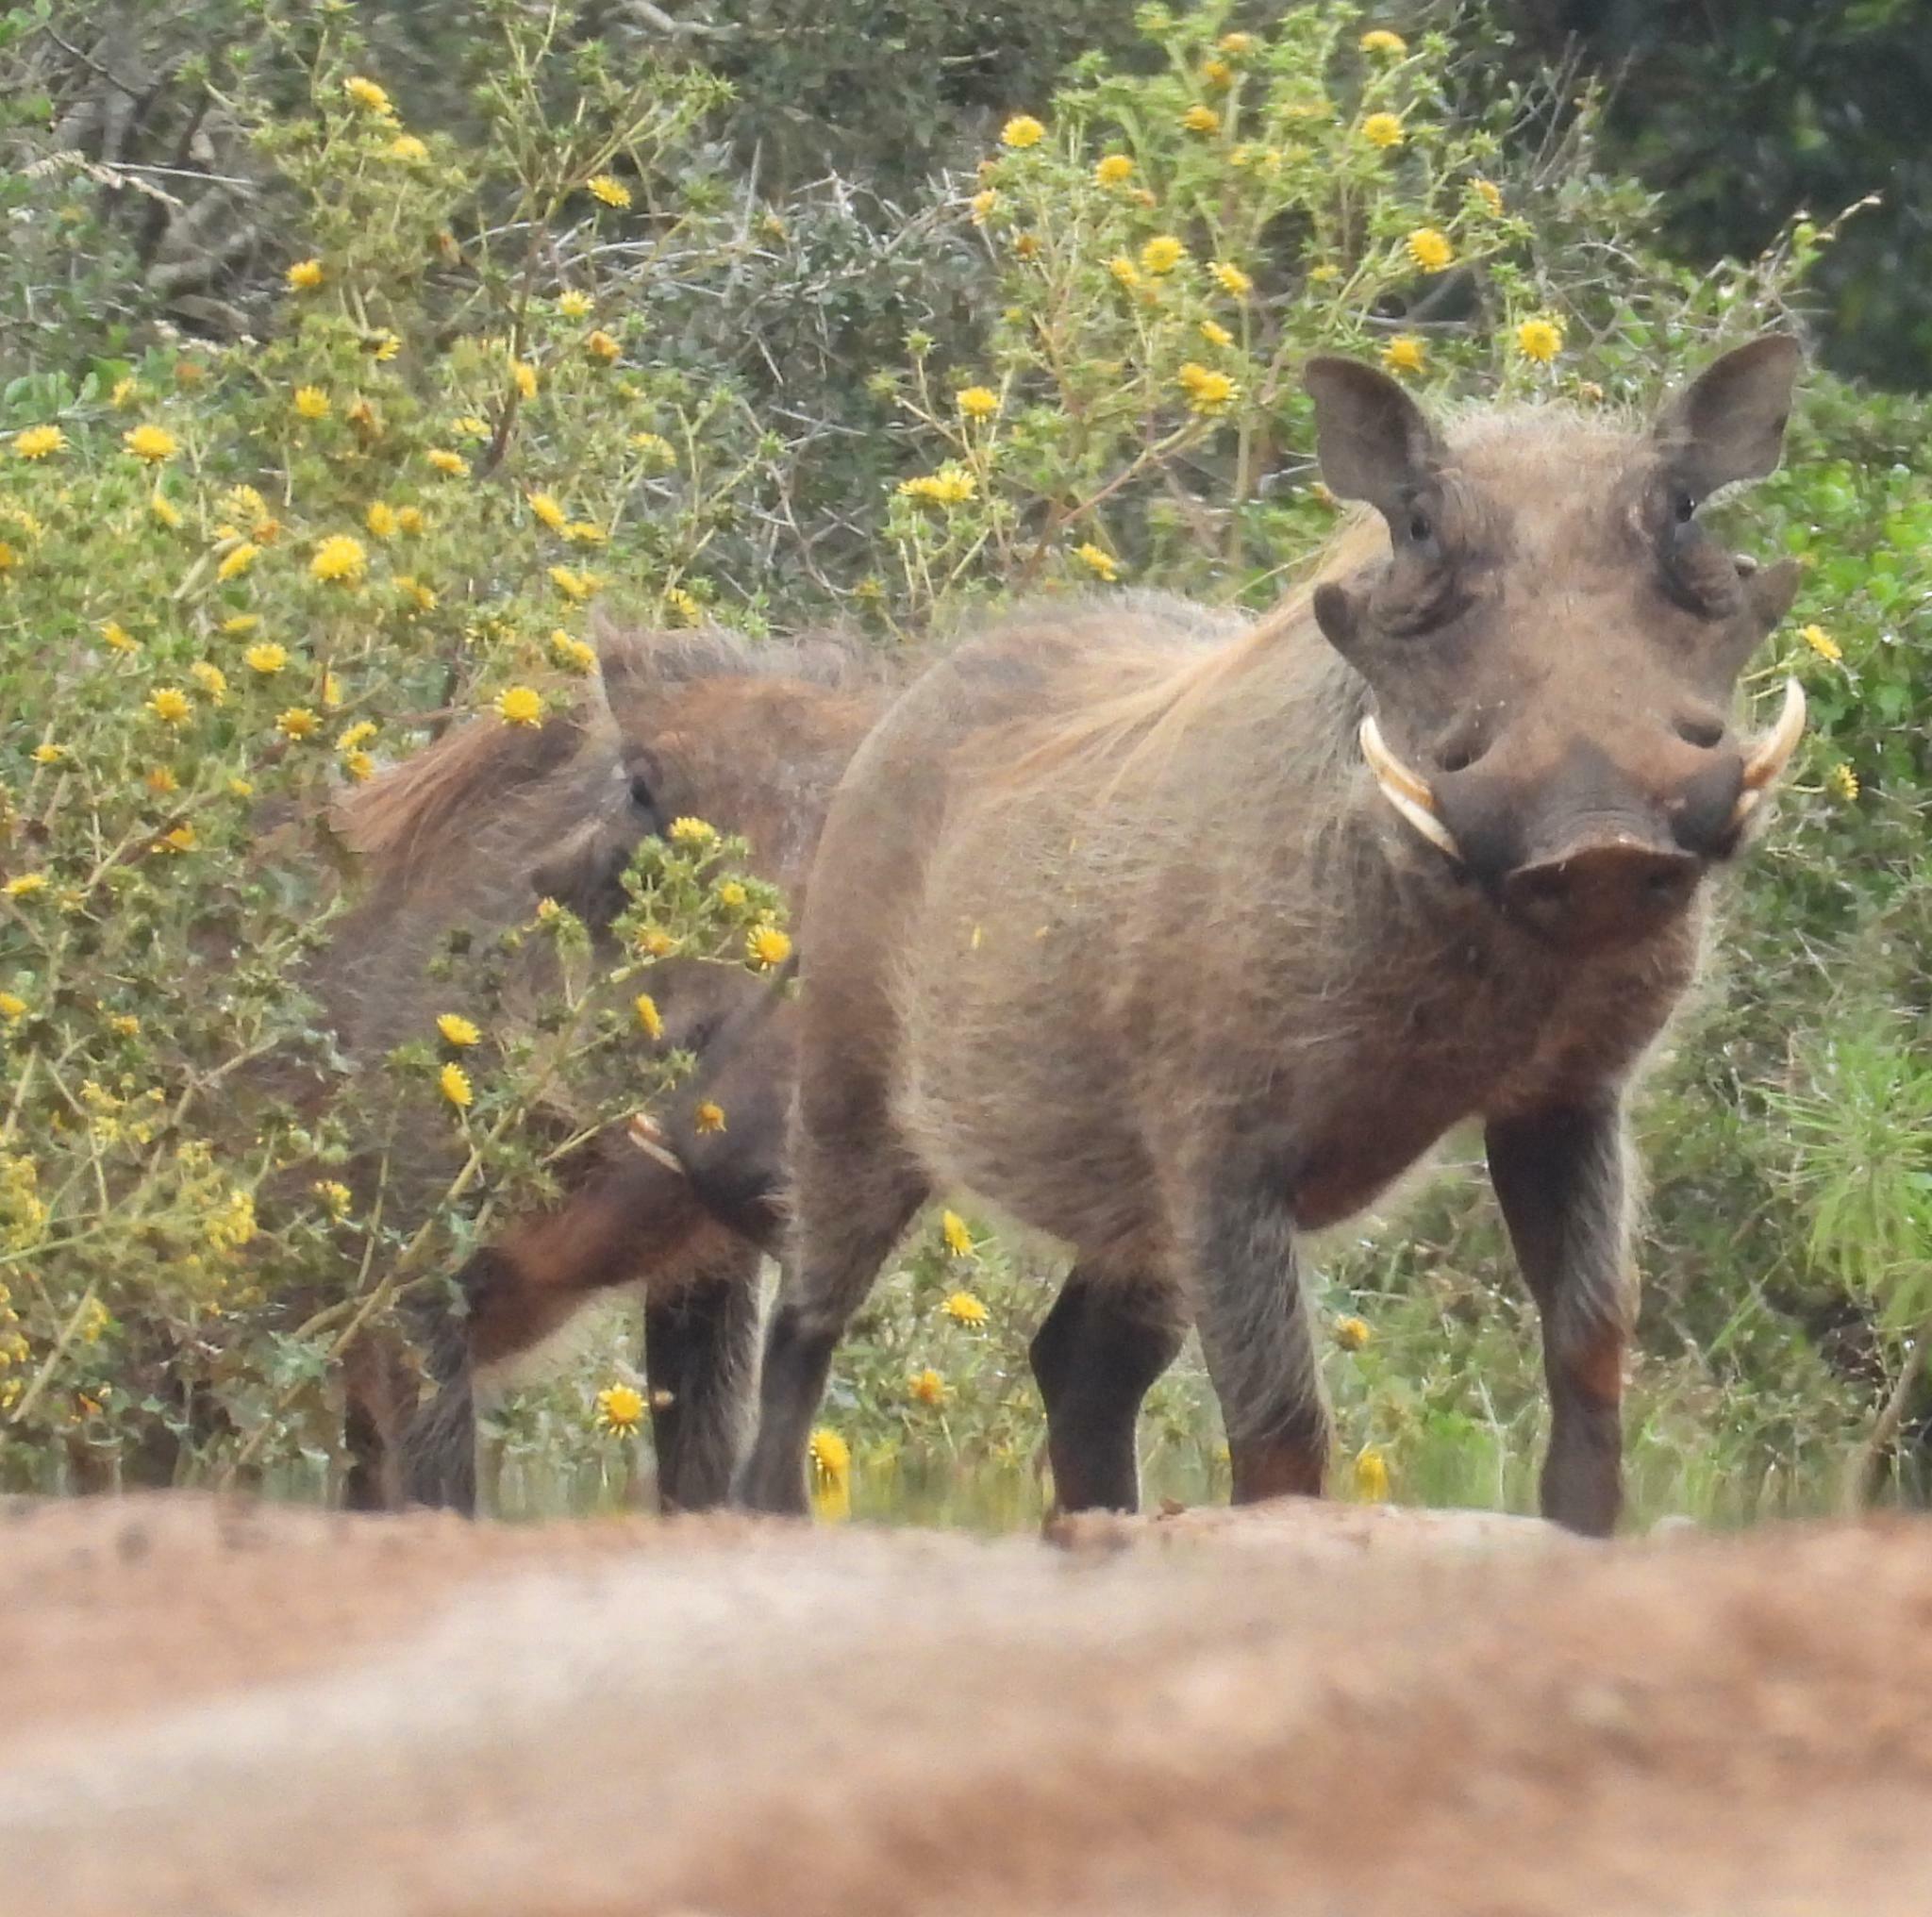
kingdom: Animalia
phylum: Chordata
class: Mammalia
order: Artiodactyla
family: Suidae
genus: Phacochoerus
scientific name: Phacochoerus africanus
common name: Common warthog
